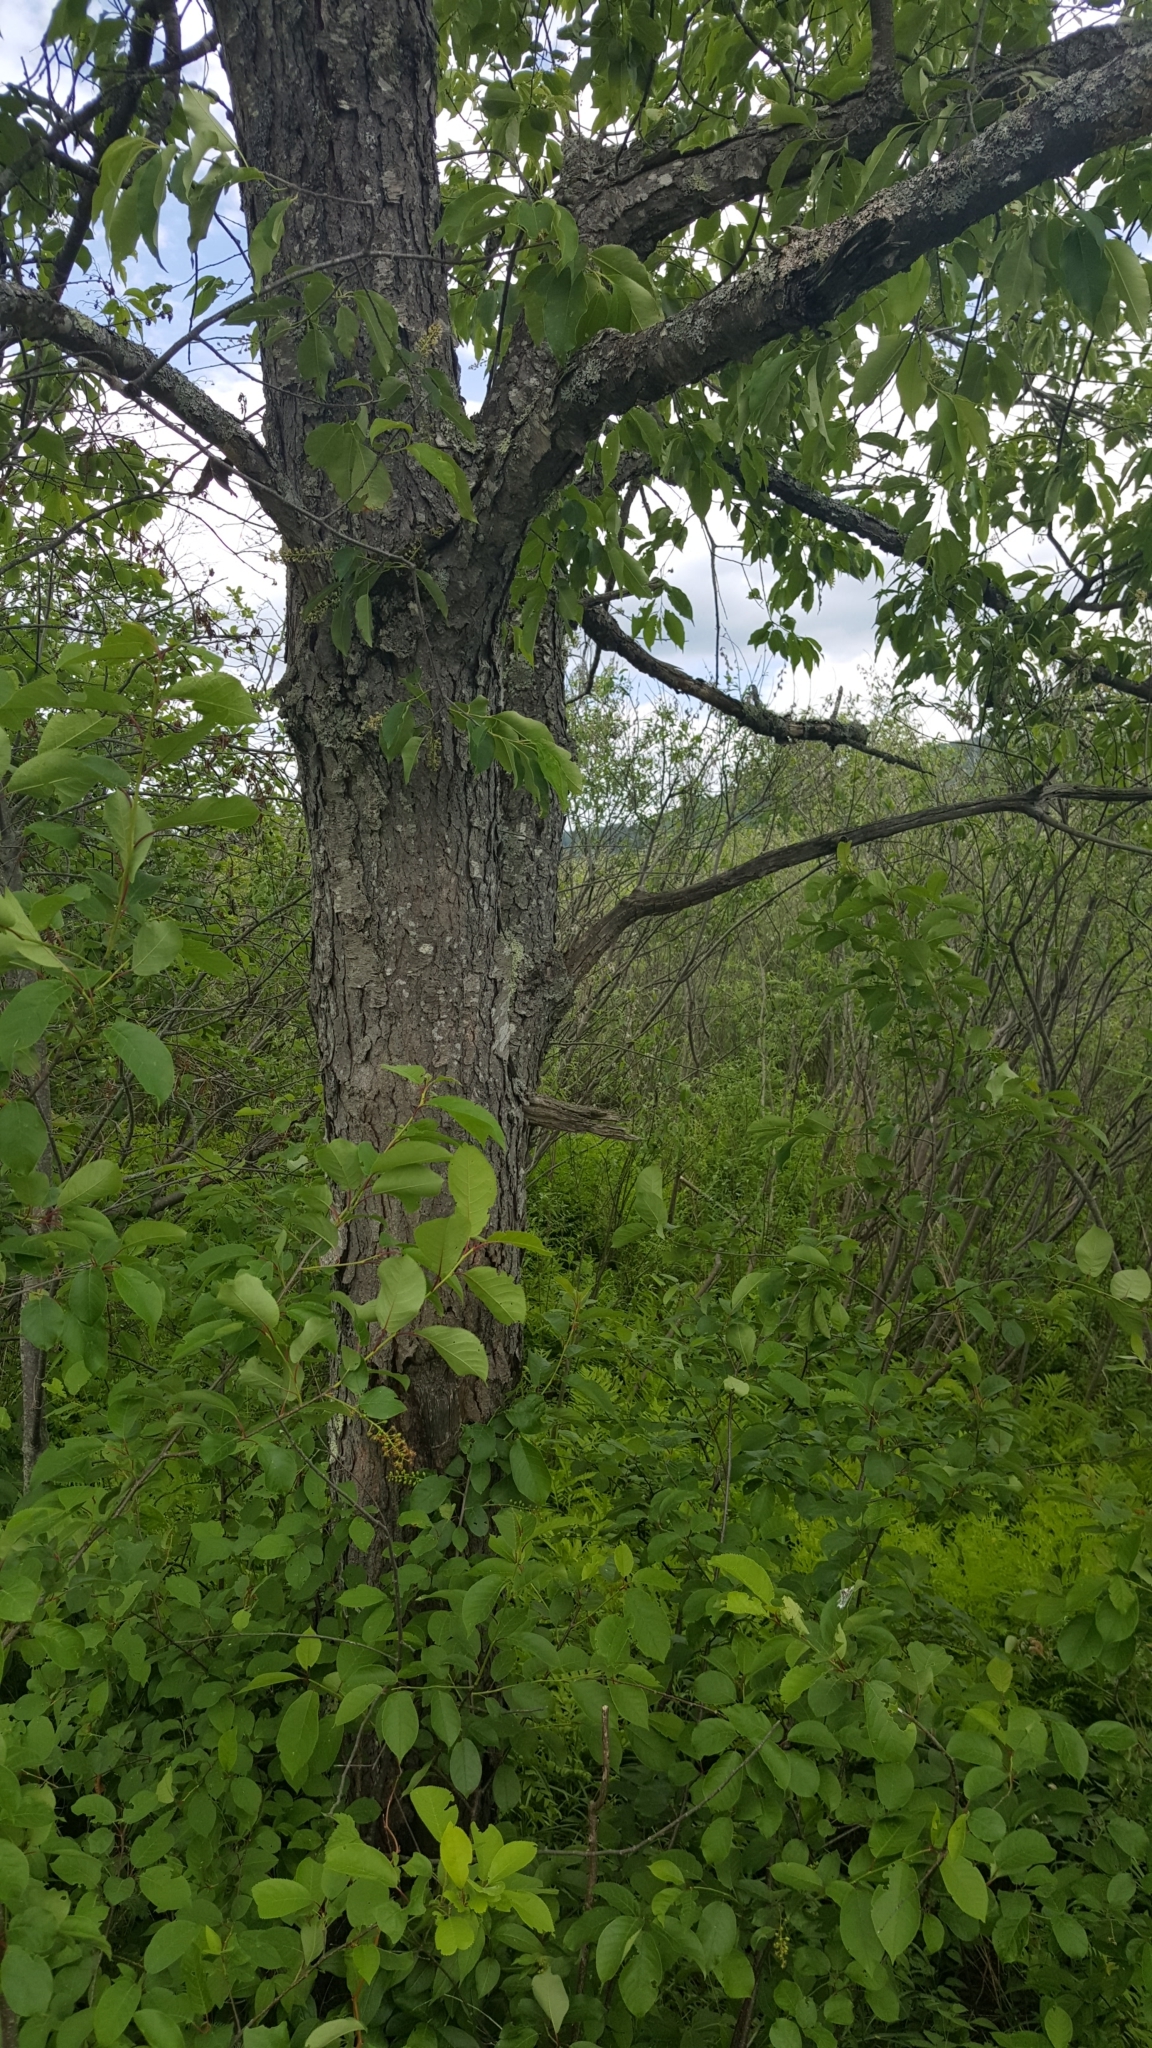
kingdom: Plantae
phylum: Tracheophyta
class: Magnoliopsida
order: Rosales
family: Rosaceae
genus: Prunus
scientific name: Prunus serotina
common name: Black cherry
